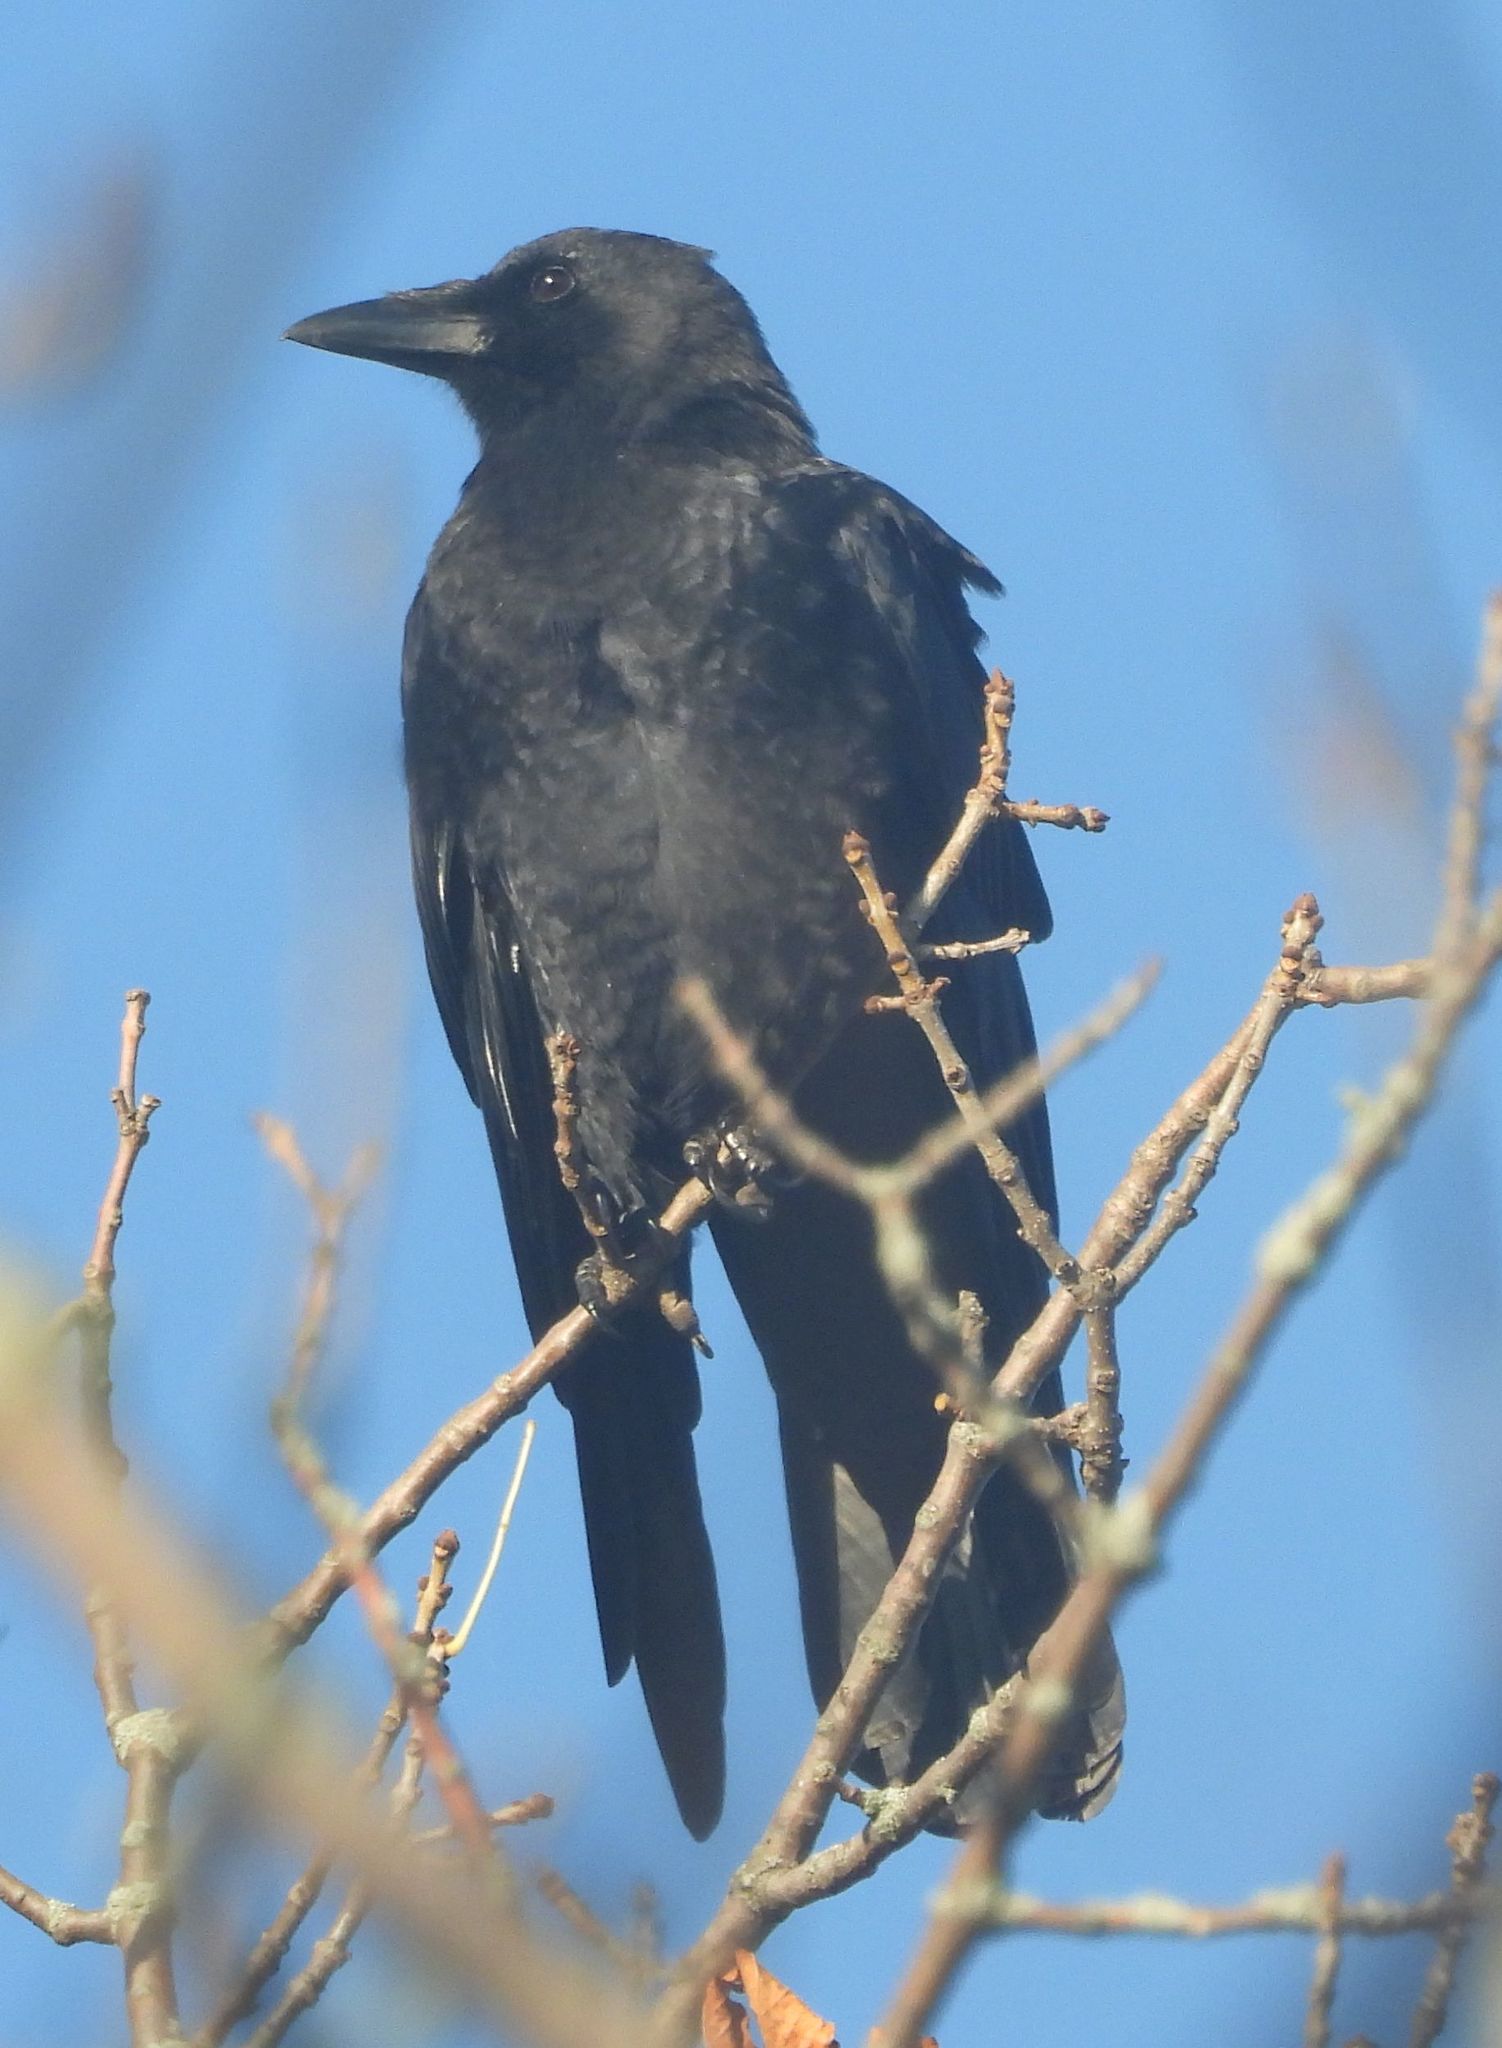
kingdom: Animalia
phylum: Chordata
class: Aves
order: Passeriformes
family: Corvidae
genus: Corvus
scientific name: Corvus brachyrhynchos
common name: American crow
